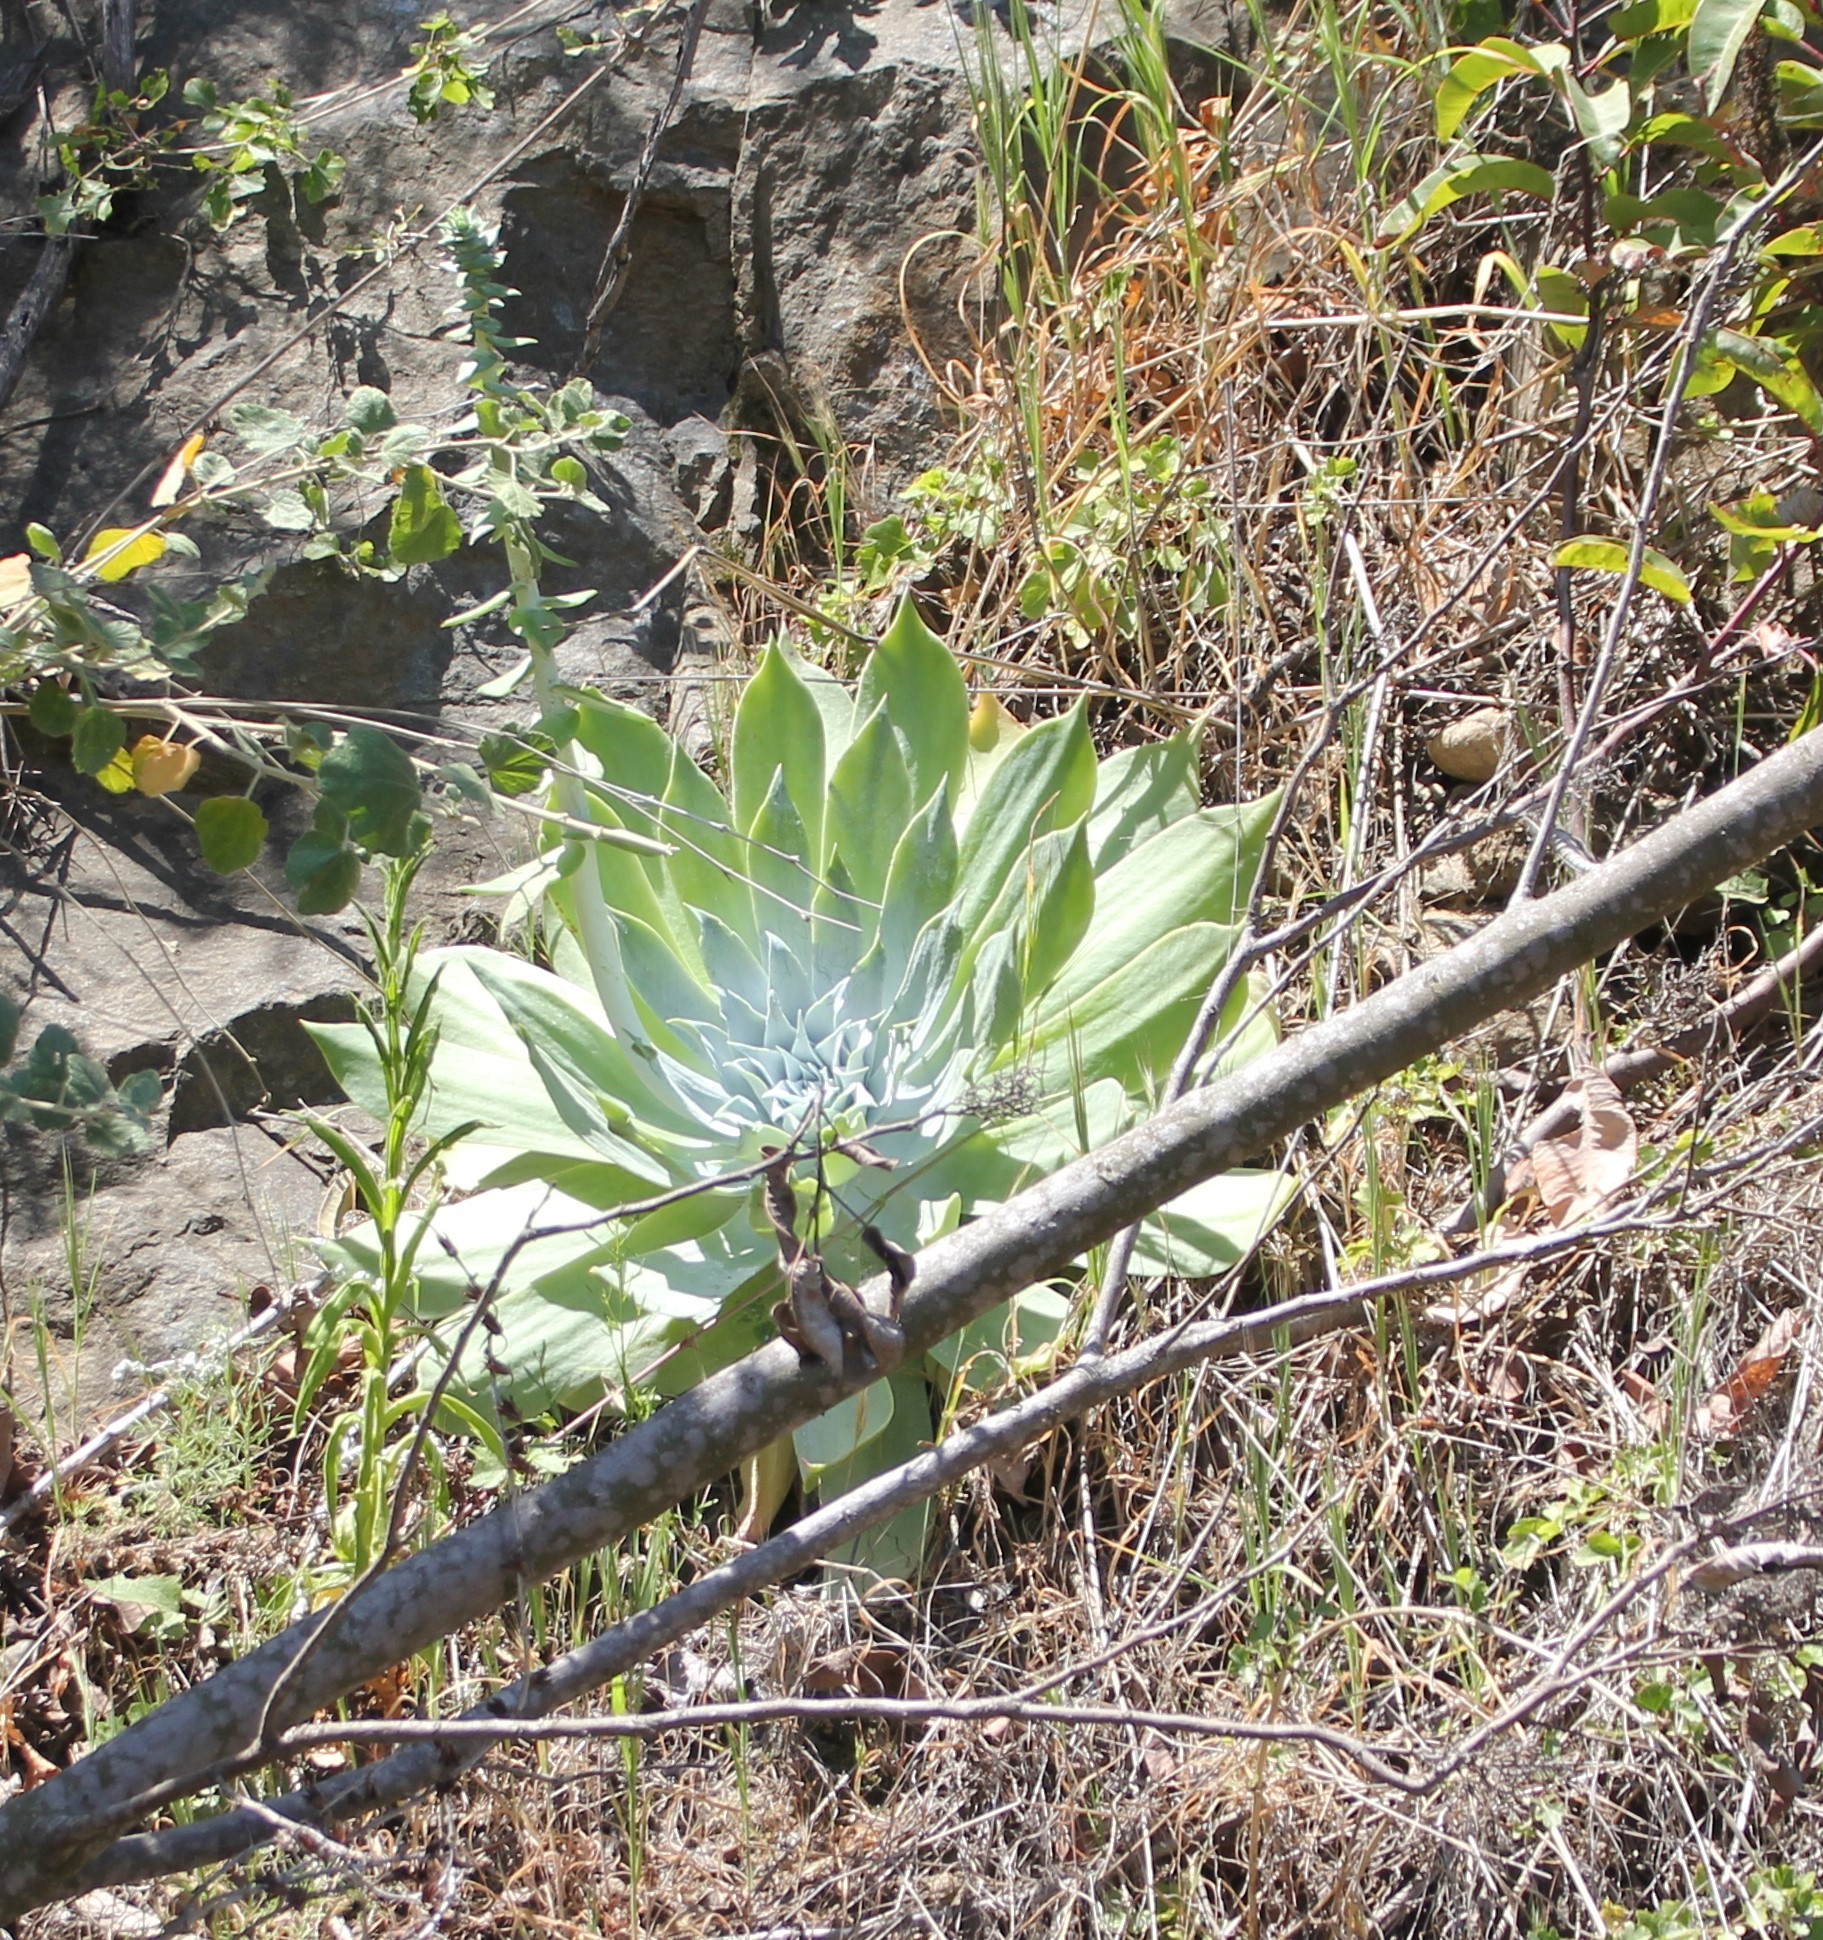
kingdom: Plantae
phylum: Tracheophyta
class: Magnoliopsida
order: Saxifragales
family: Crassulaceae
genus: Dudleya
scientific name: Dudleya pulverulenta
